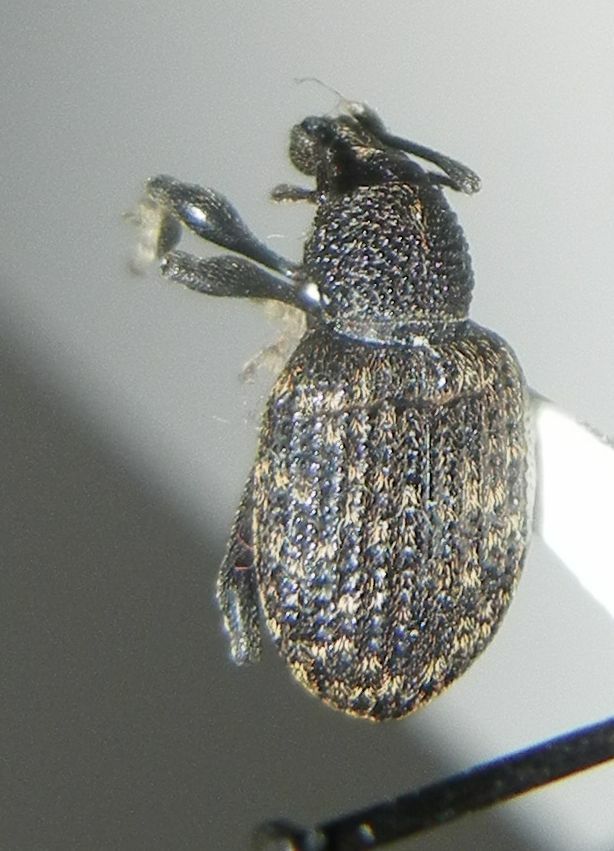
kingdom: Animalia
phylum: Arthropoda
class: Insecta
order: Coleoptera
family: Curculionidae
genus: Otiorhynchus
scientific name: Otiorhynchus sulcatus
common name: Black vine weevil
